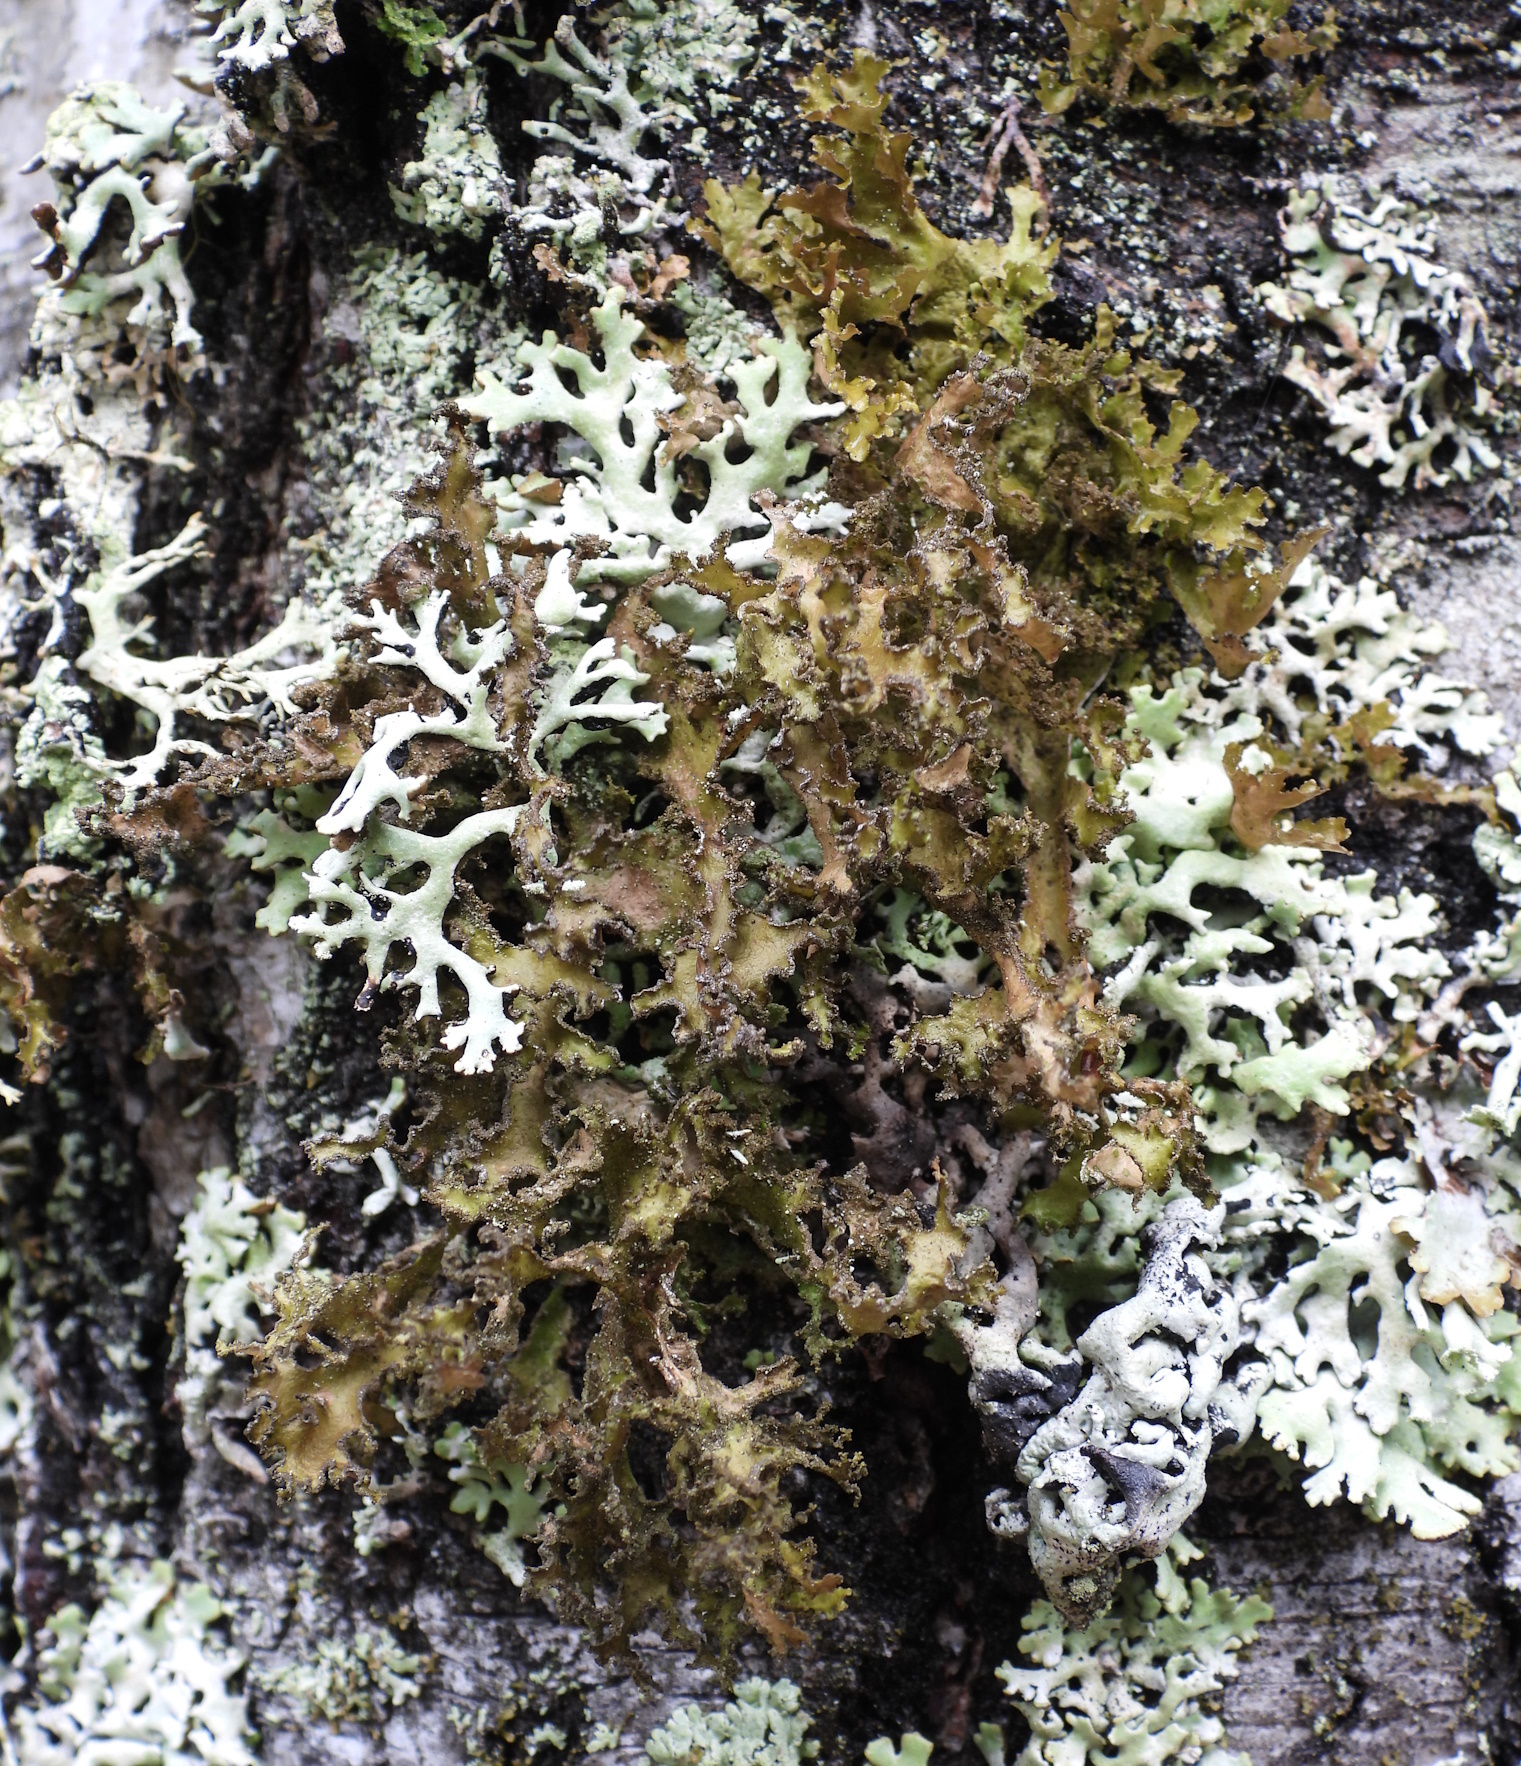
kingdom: Fungi
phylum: Ascomycota
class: Lecanoromycetes
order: Lecanorales
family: Parmeliaceae
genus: Nephromopsis
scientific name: Nephromopsis chlorophylla
